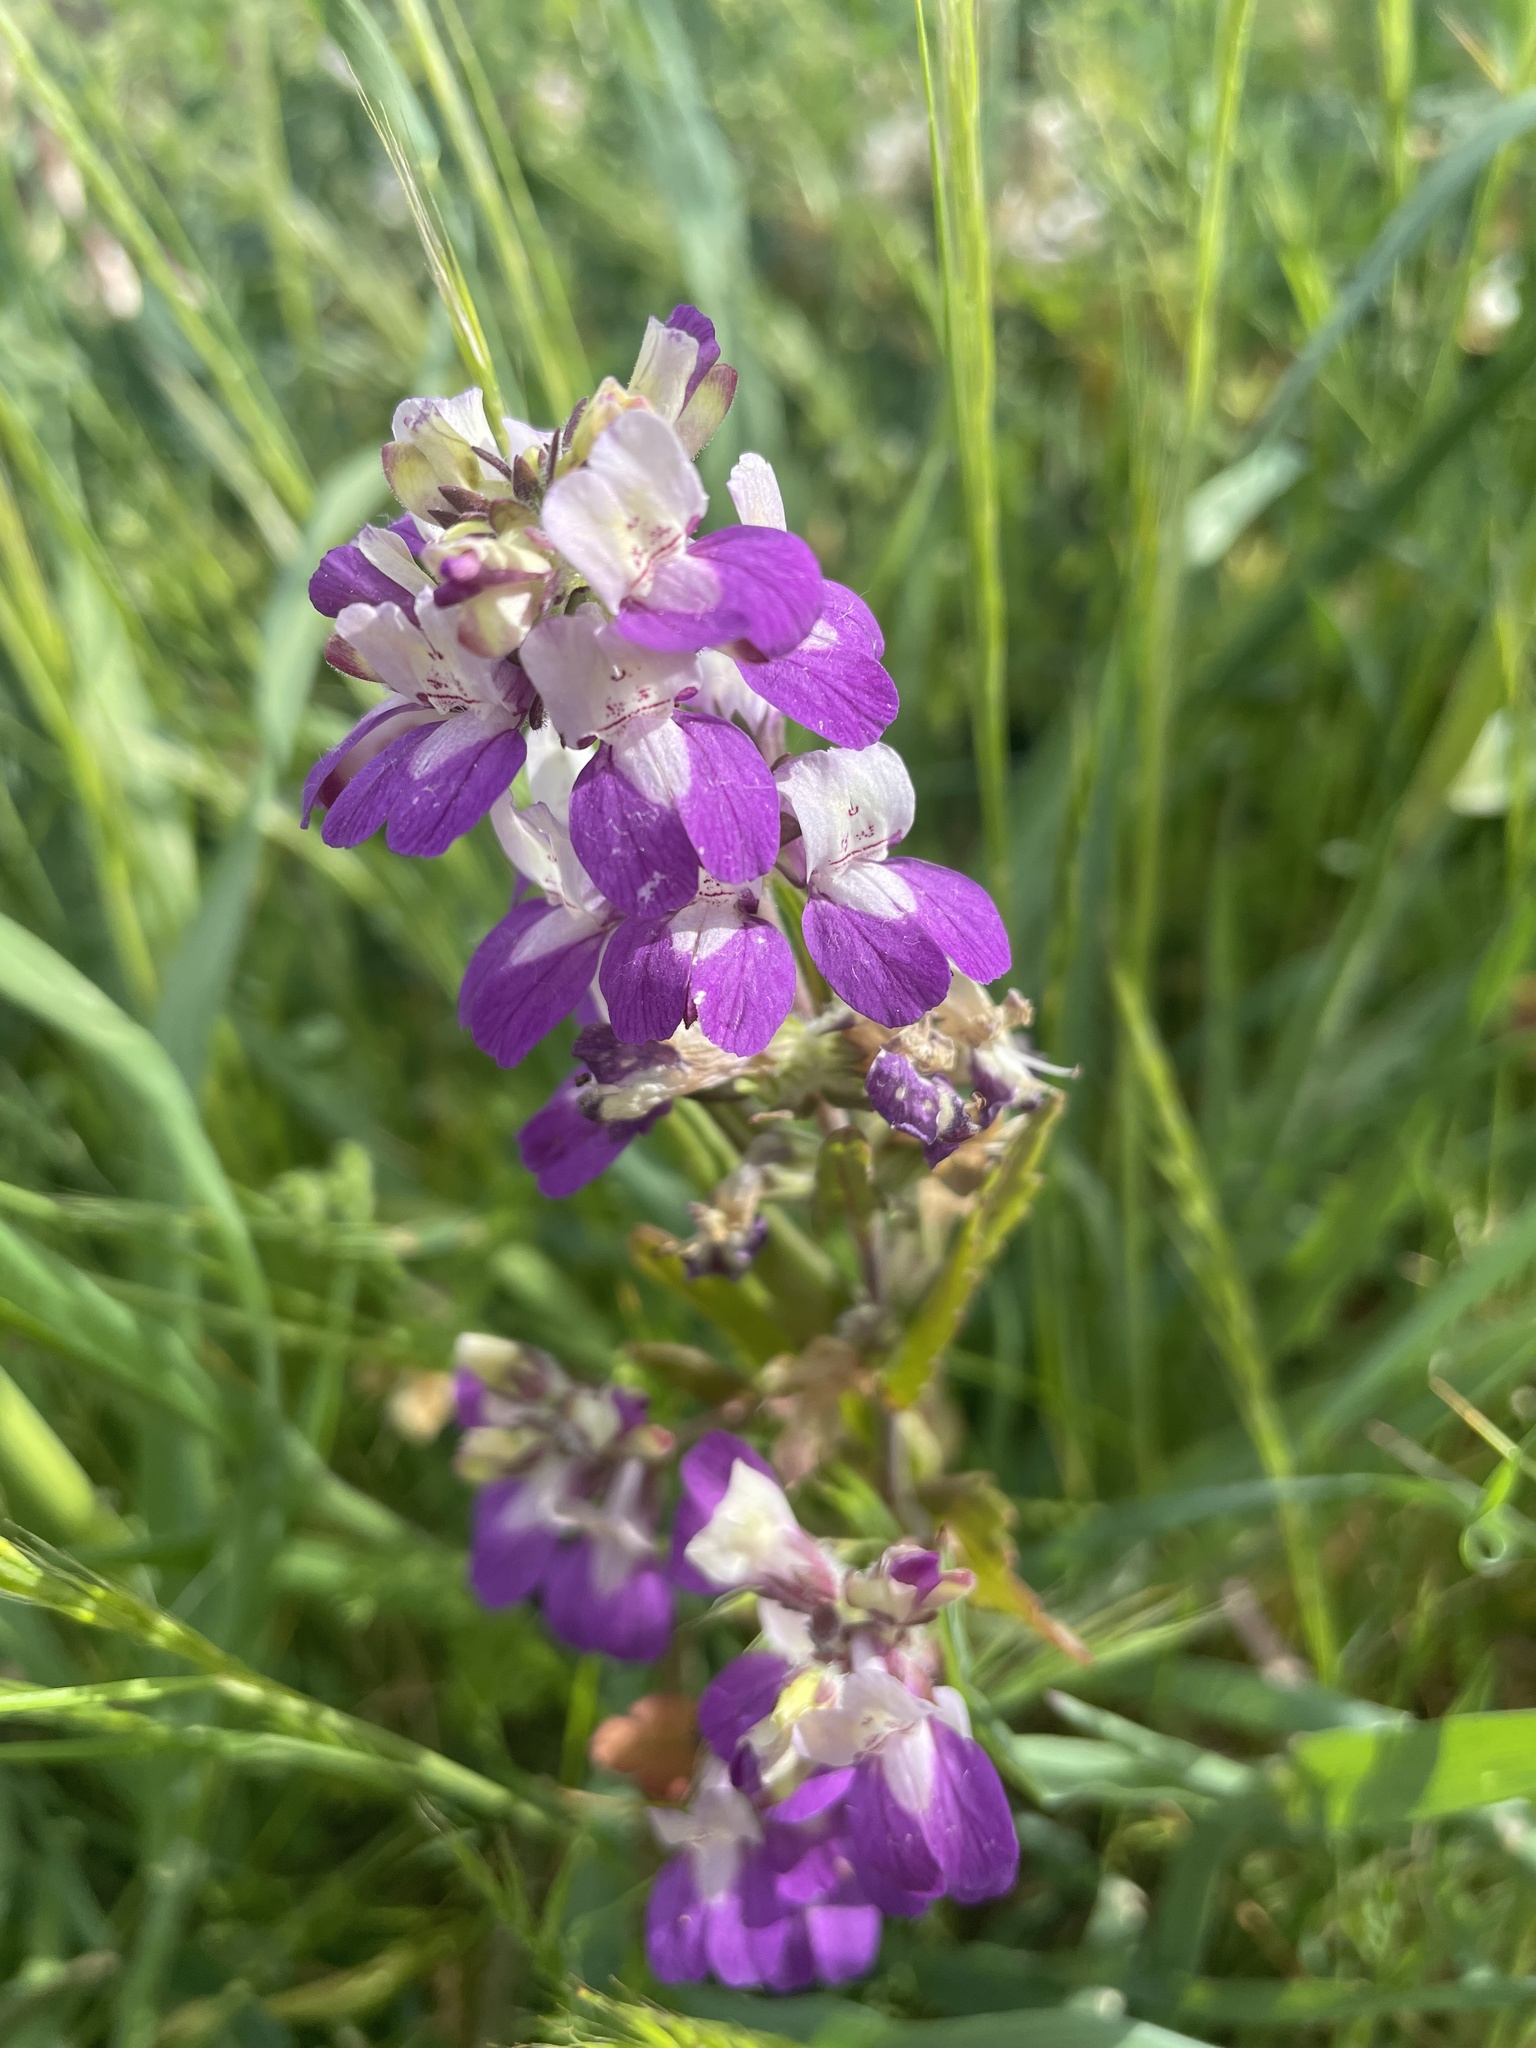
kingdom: Plantae
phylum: Tracheophyta
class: Magnoliopsida
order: Lamiales
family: Plantaginaceae
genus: Collinsia
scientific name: Collinsia heterophylla
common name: Chinese-houses
